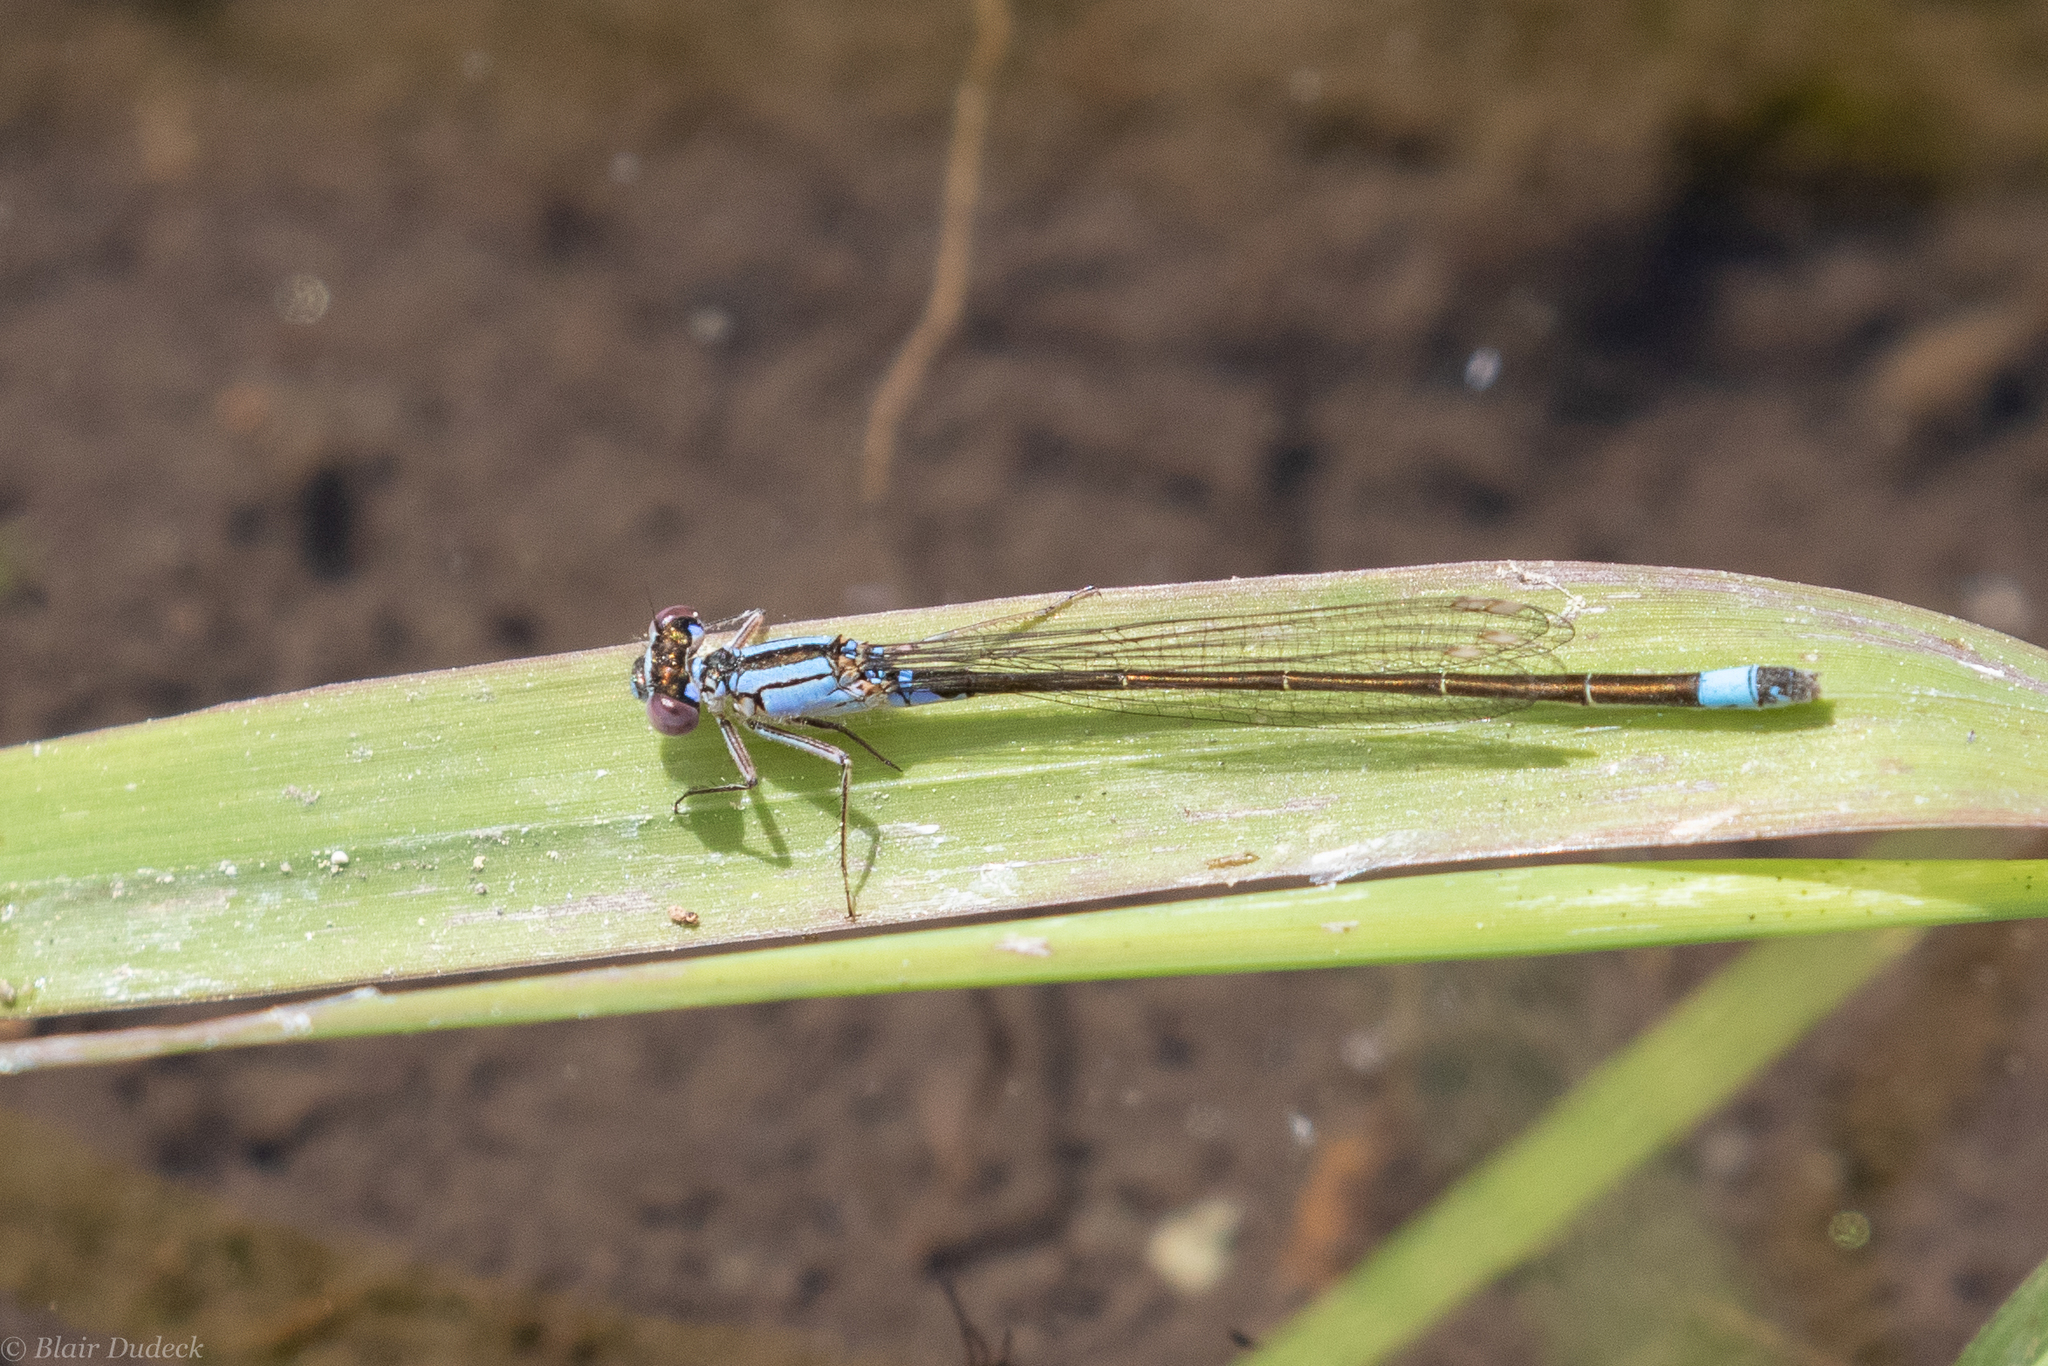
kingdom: Animalia
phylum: Arthropoda
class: Insecta
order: Odonata
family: Coenagrionidae
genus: Ischnura
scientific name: Ischnura cervula
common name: Pacific forktail
